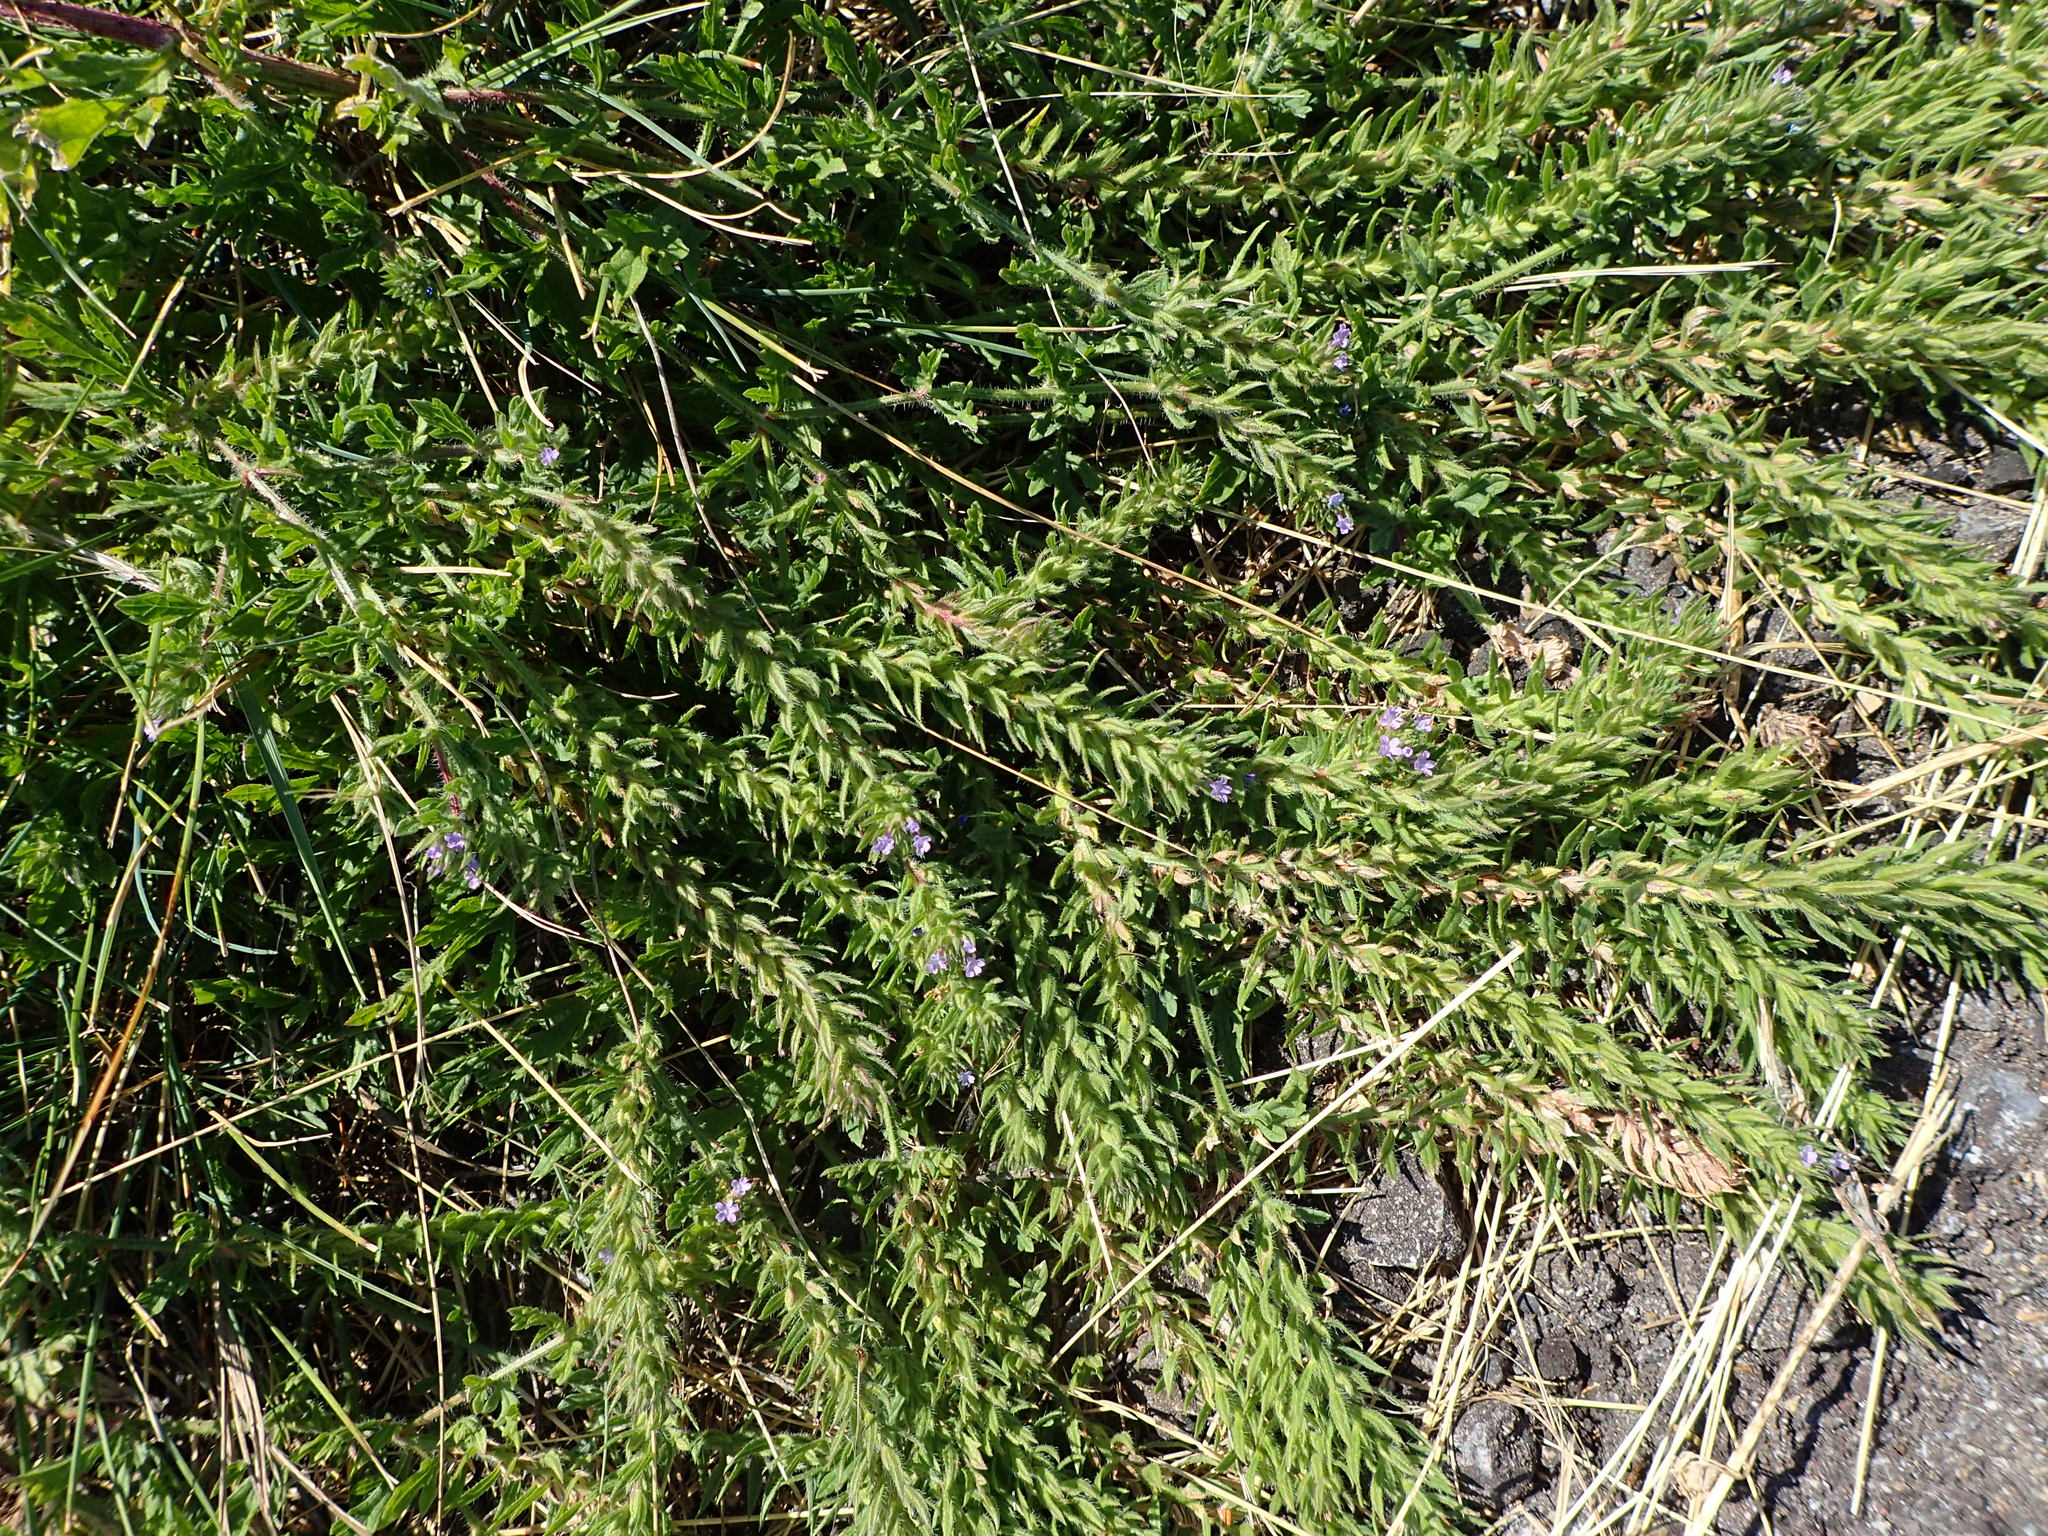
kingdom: Plantae
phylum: Tracheophyta
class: Magnoliopsida
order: Lamiales
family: Verbenaceae
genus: Verbena
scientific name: Verbena bracteata
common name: Bracted vervain
